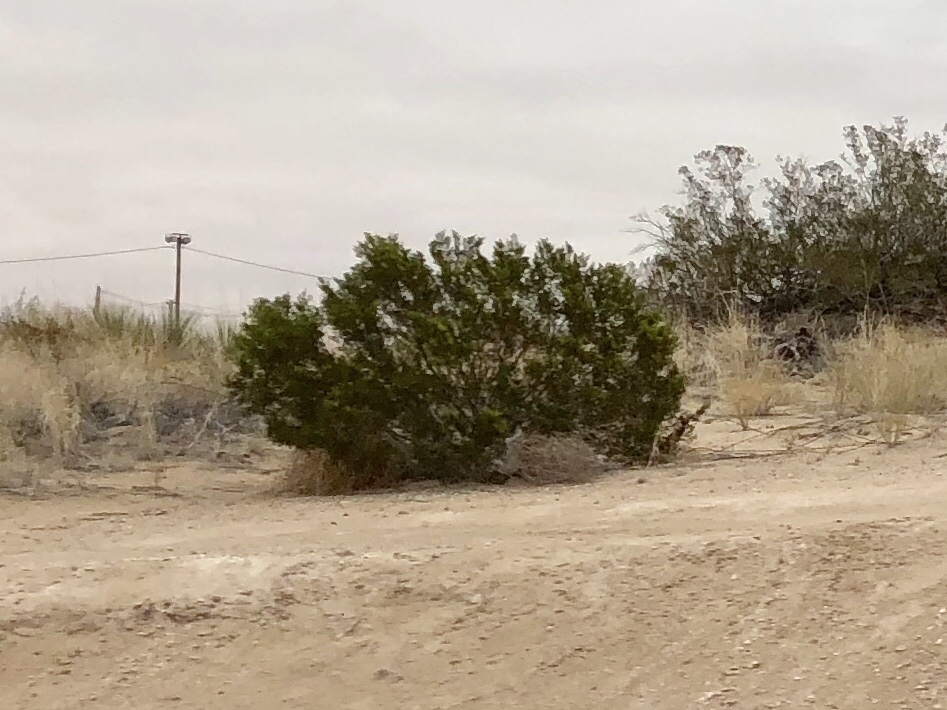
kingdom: Plantae
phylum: Tracheophyta
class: Magnoliopsida
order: Zygophyllales
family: Zygophyllaceae
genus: Larrea
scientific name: Larrea tridentata
